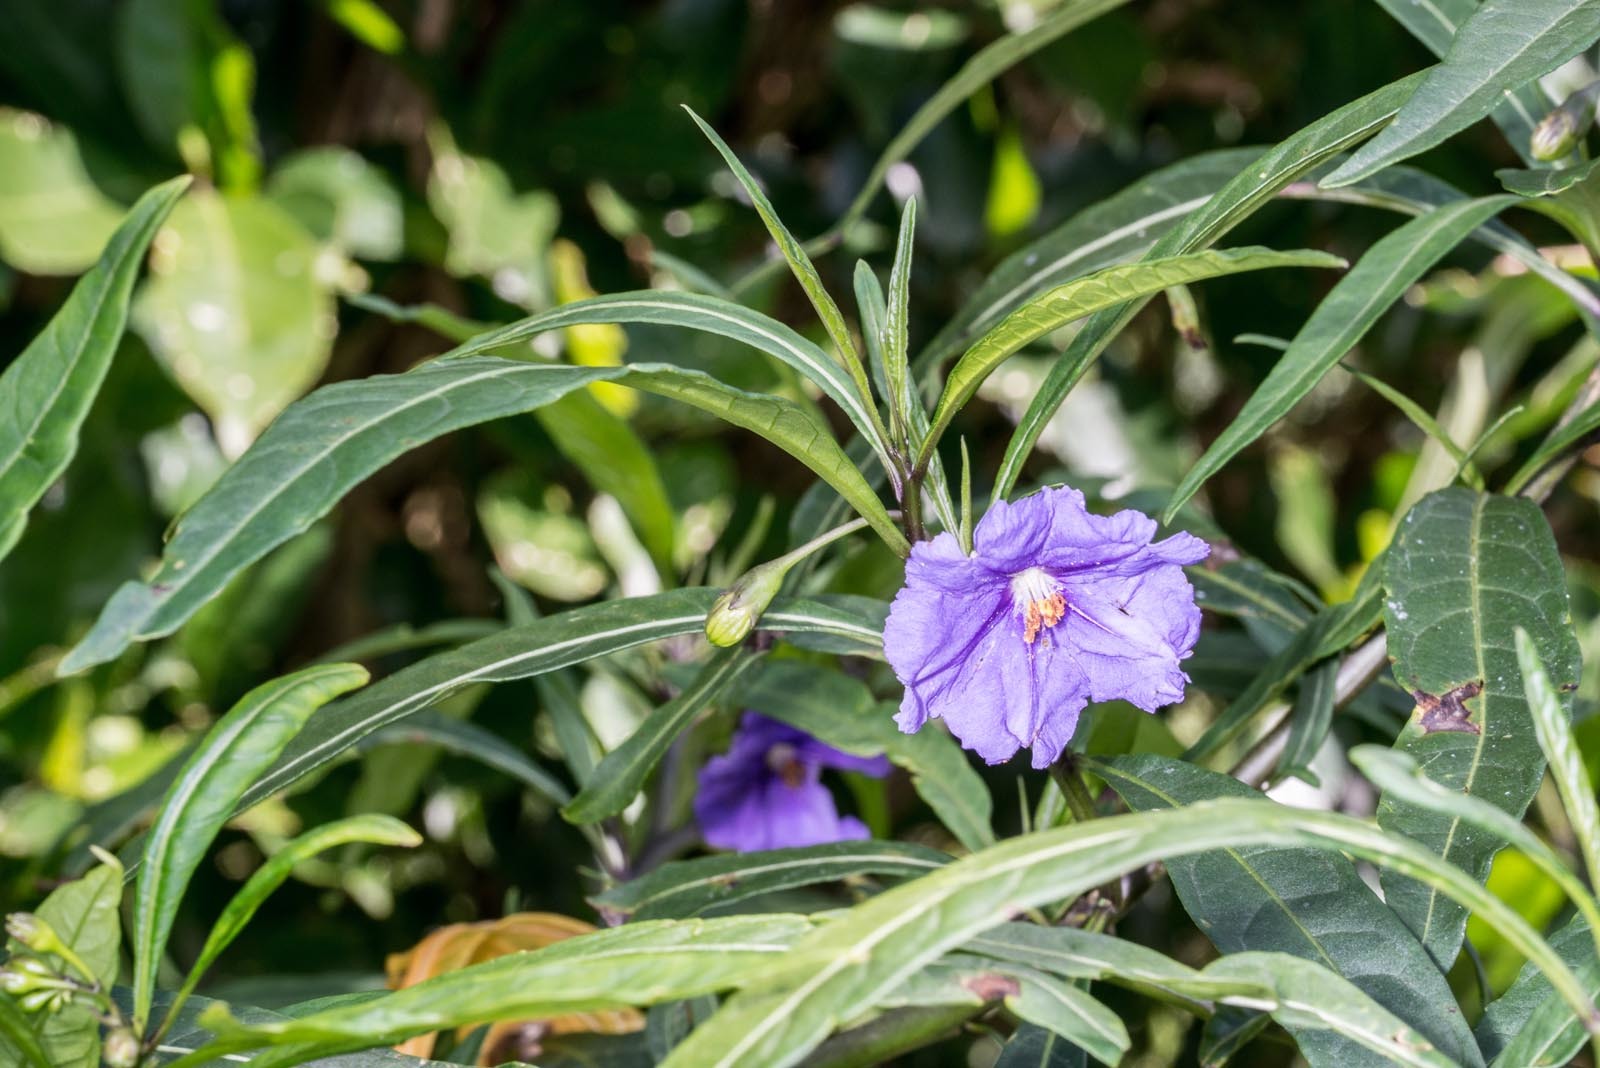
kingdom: Plantae
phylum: Tracheophyta
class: Magnoliopsida
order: Solanales
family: Solanaceae
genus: Solanum
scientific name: Solanum laciniatum
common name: Kangaroo-apple
